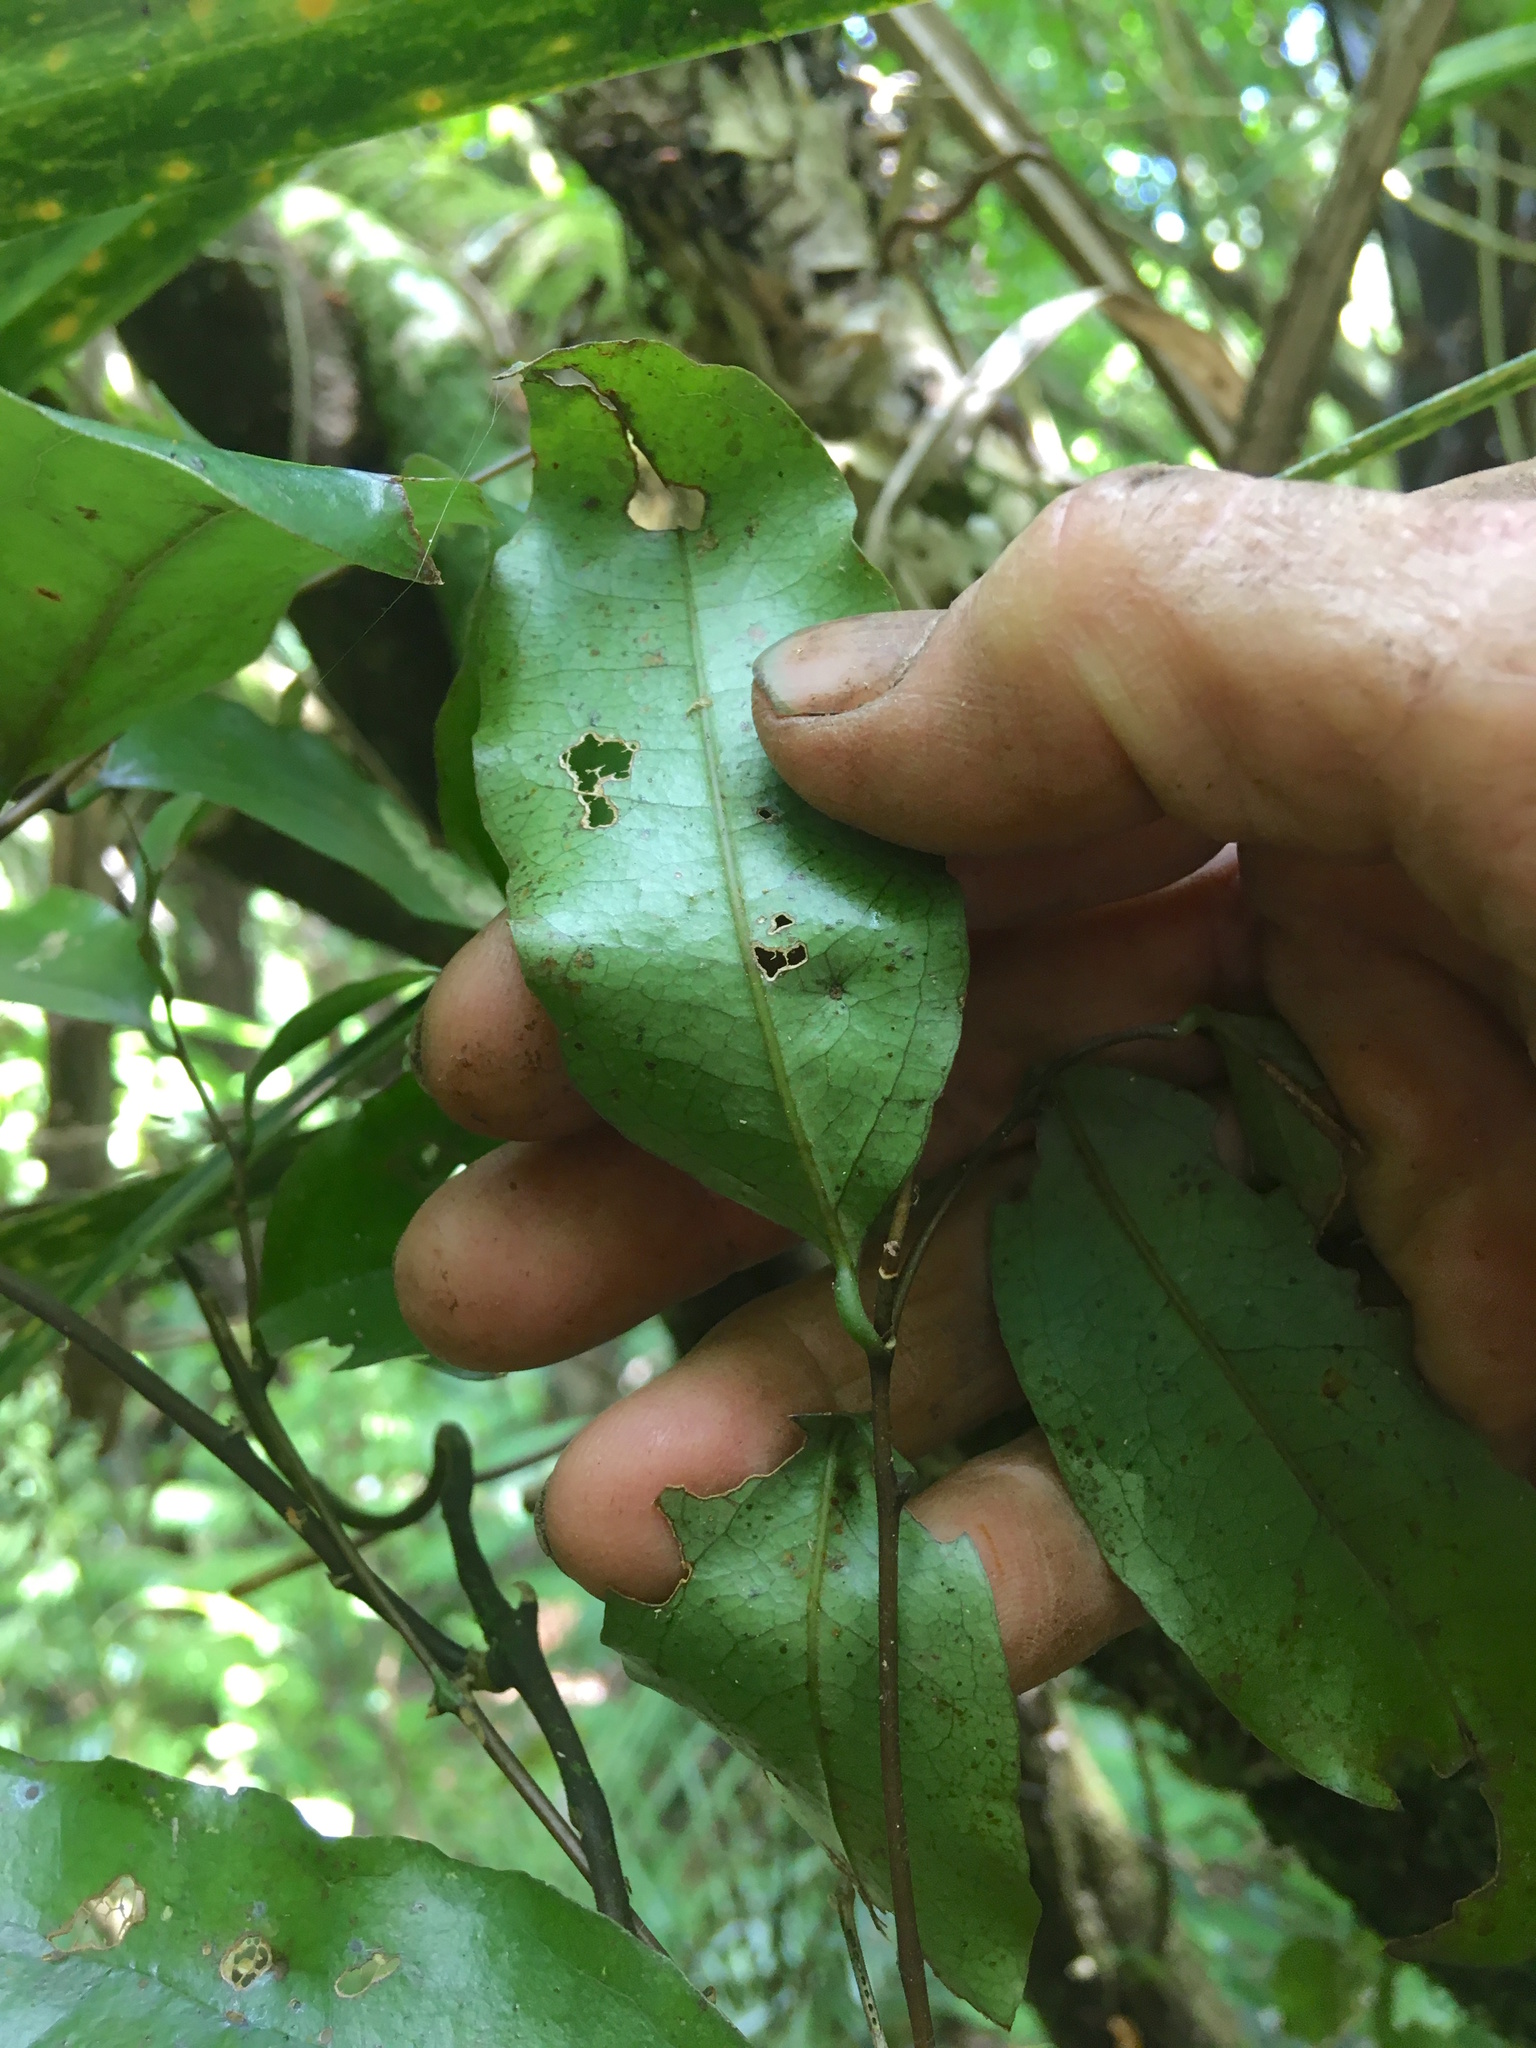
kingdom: Plantae
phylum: Tracheophyta
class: Liliopsida
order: Liliales
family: Ripogonaceae
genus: Ripogonum
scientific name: Ripogonum scandens
